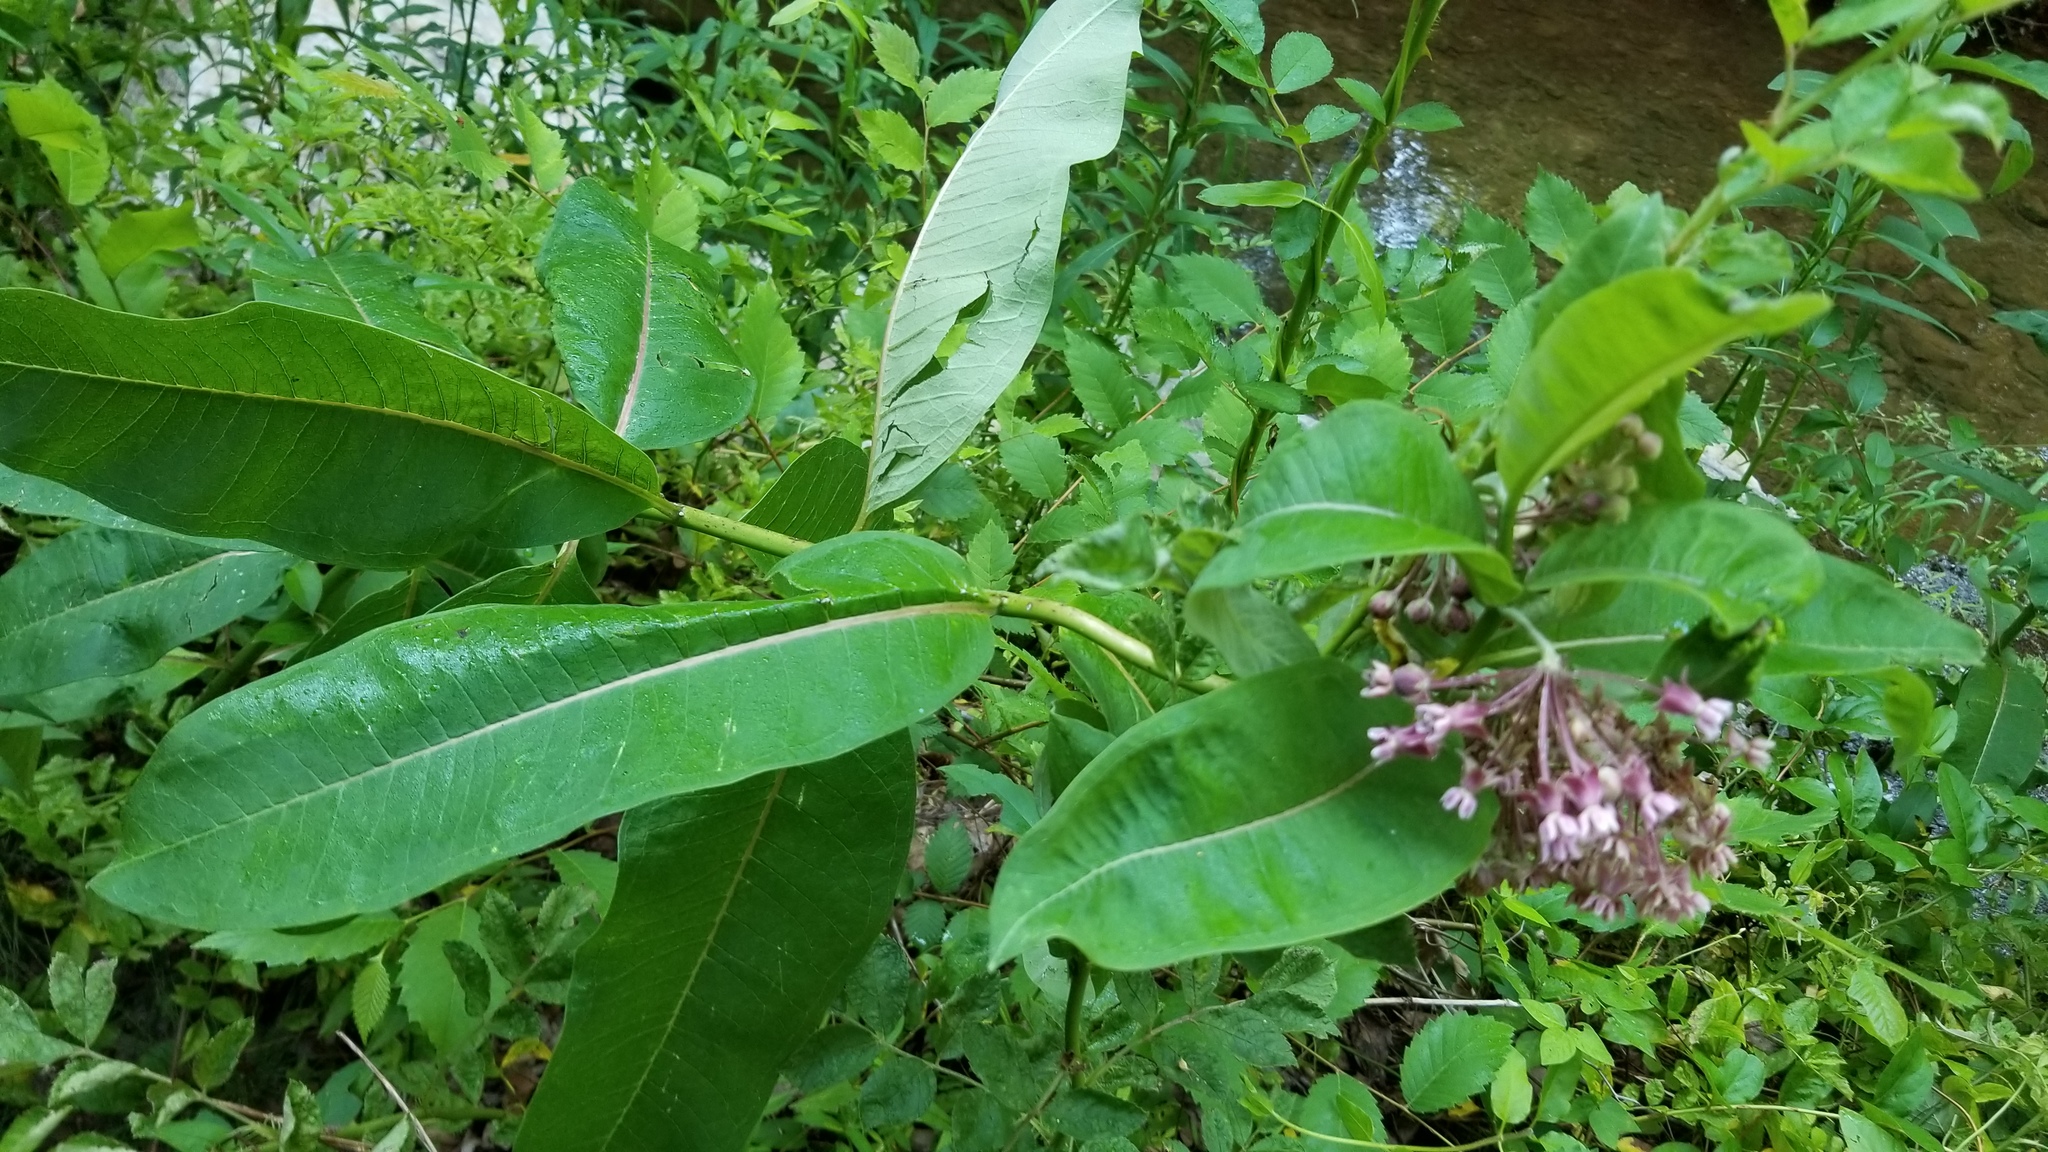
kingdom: Plantae
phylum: Tracheophyta
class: Magnoliopsida
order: Gentianales
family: Apocynaceae
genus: Asclepias
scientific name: Asclepias syriaca
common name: Common milkweed
